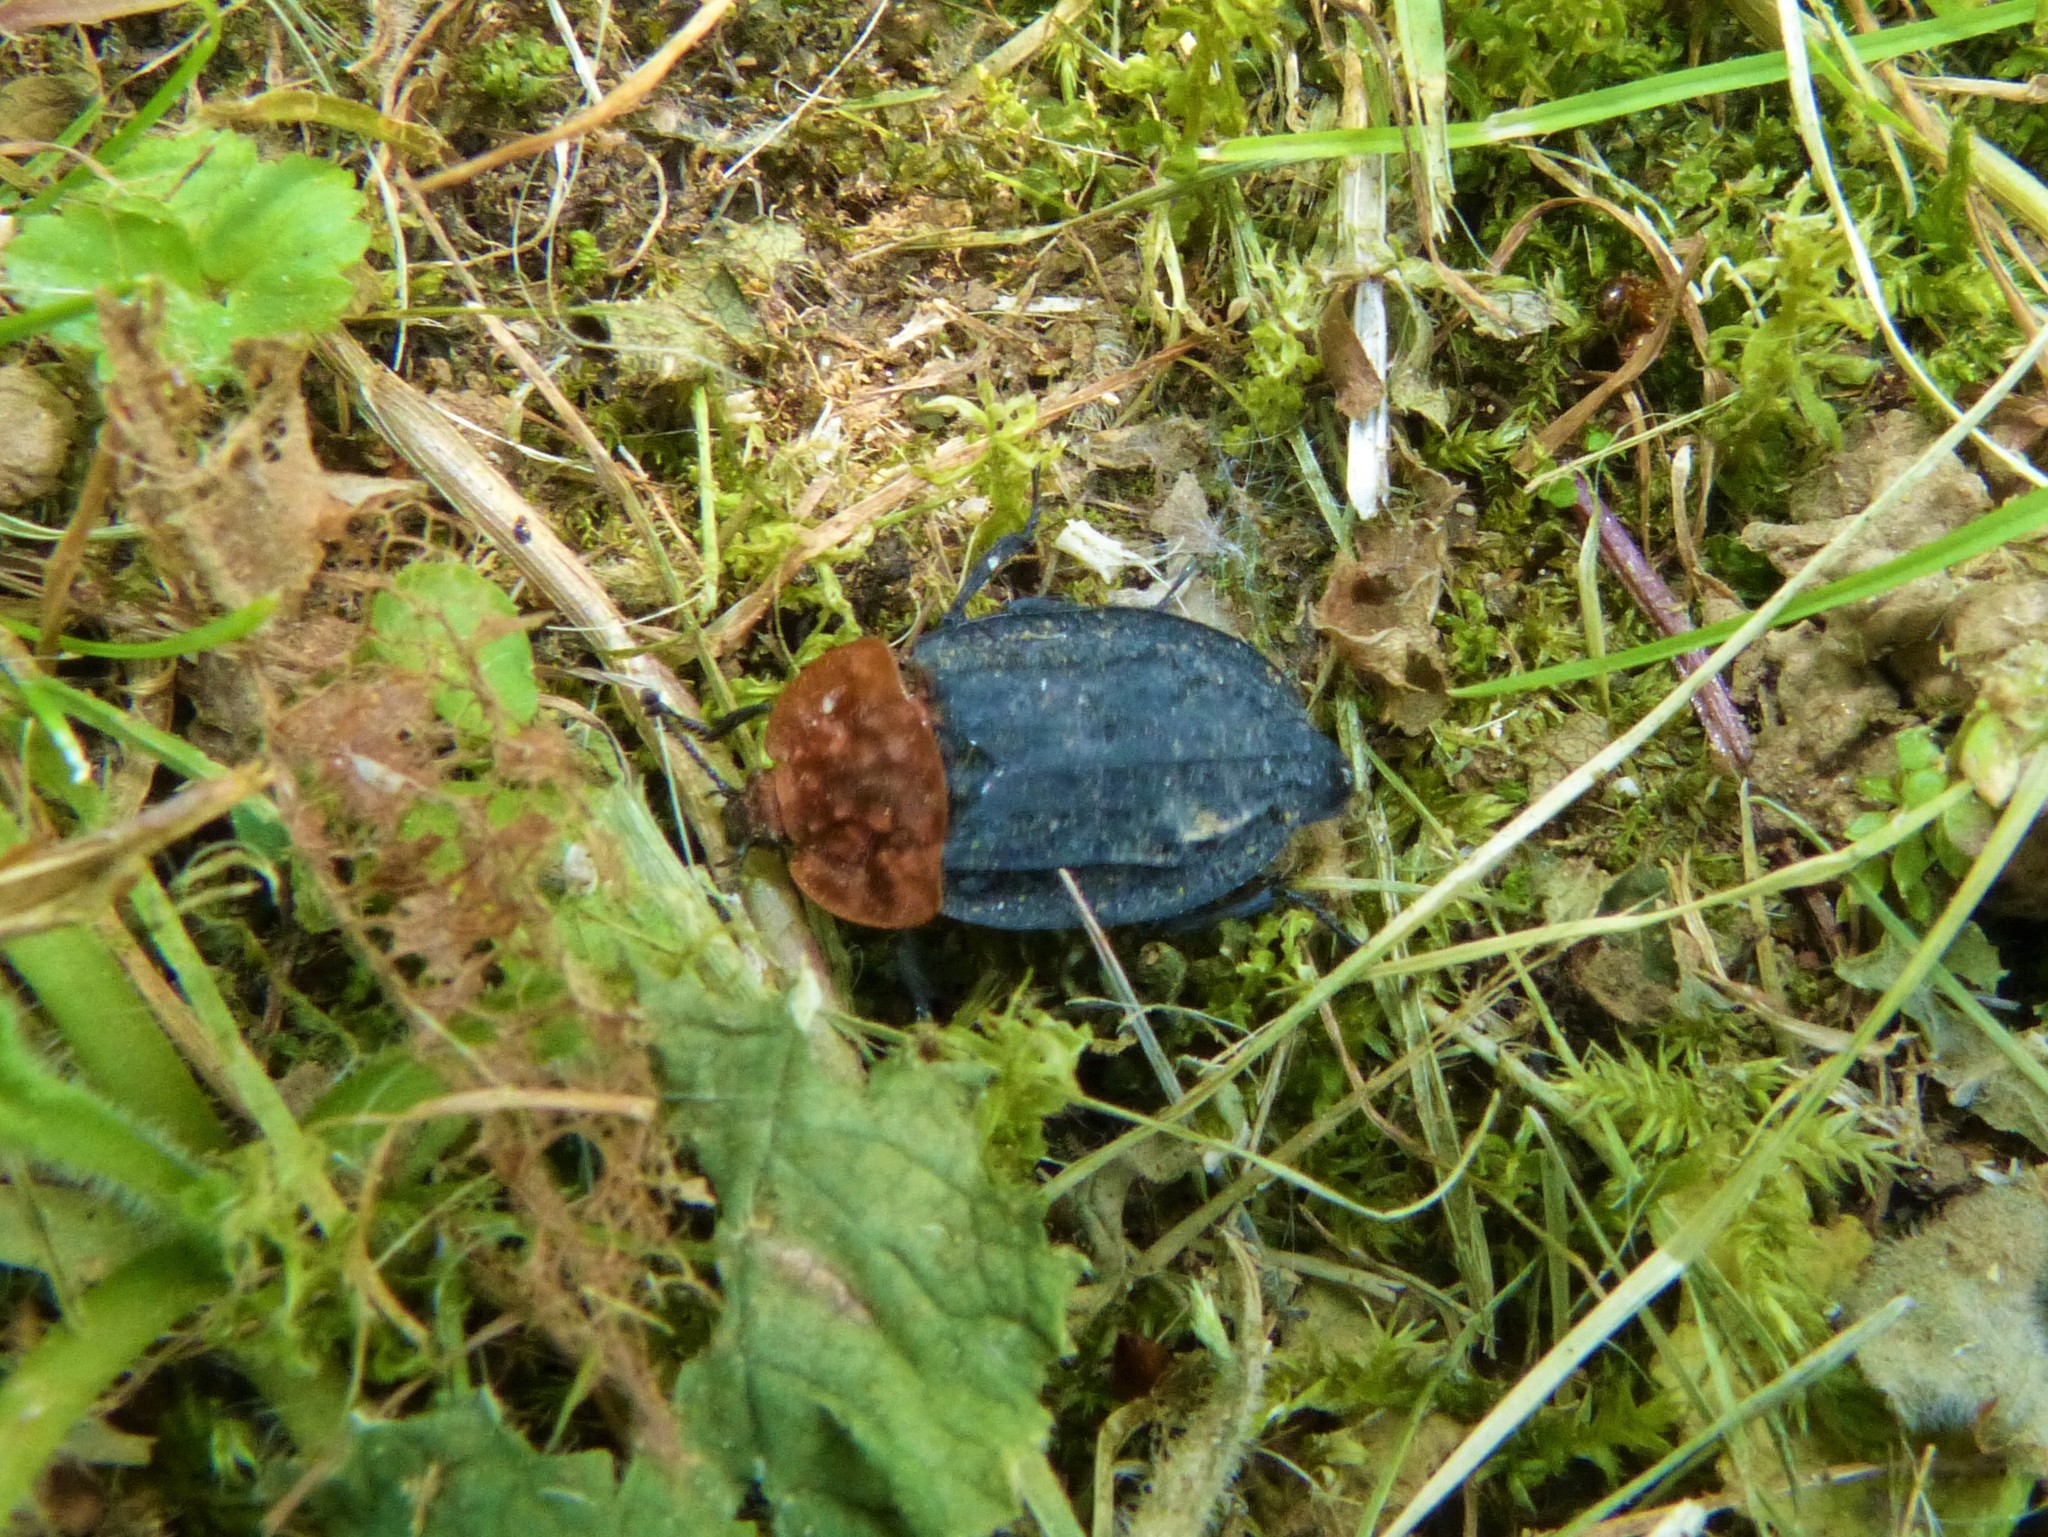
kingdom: Animalia
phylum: Arthropoda
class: Insecta
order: Coleoptera
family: Staphylinidae
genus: Oiceoptoma
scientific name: Oiceoptoma thoracicum
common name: Red-breasted carrion beetle
